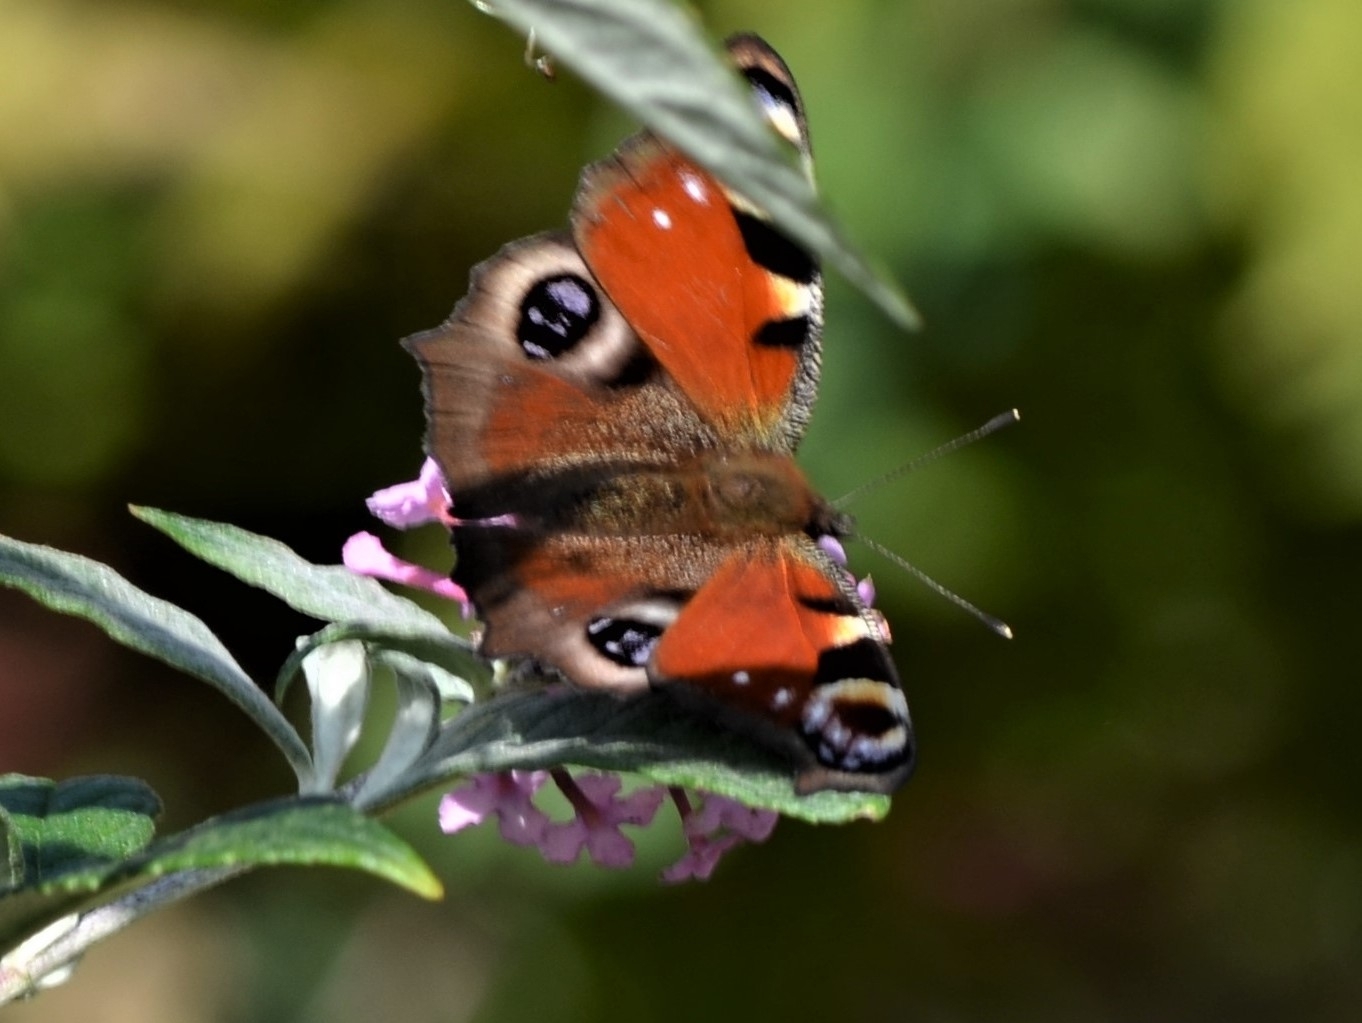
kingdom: Animalia
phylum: Arthropoda
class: Insecta
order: Lepidoptera
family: Nymphalidae
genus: Aglais
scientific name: Aglais io
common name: Peacock
